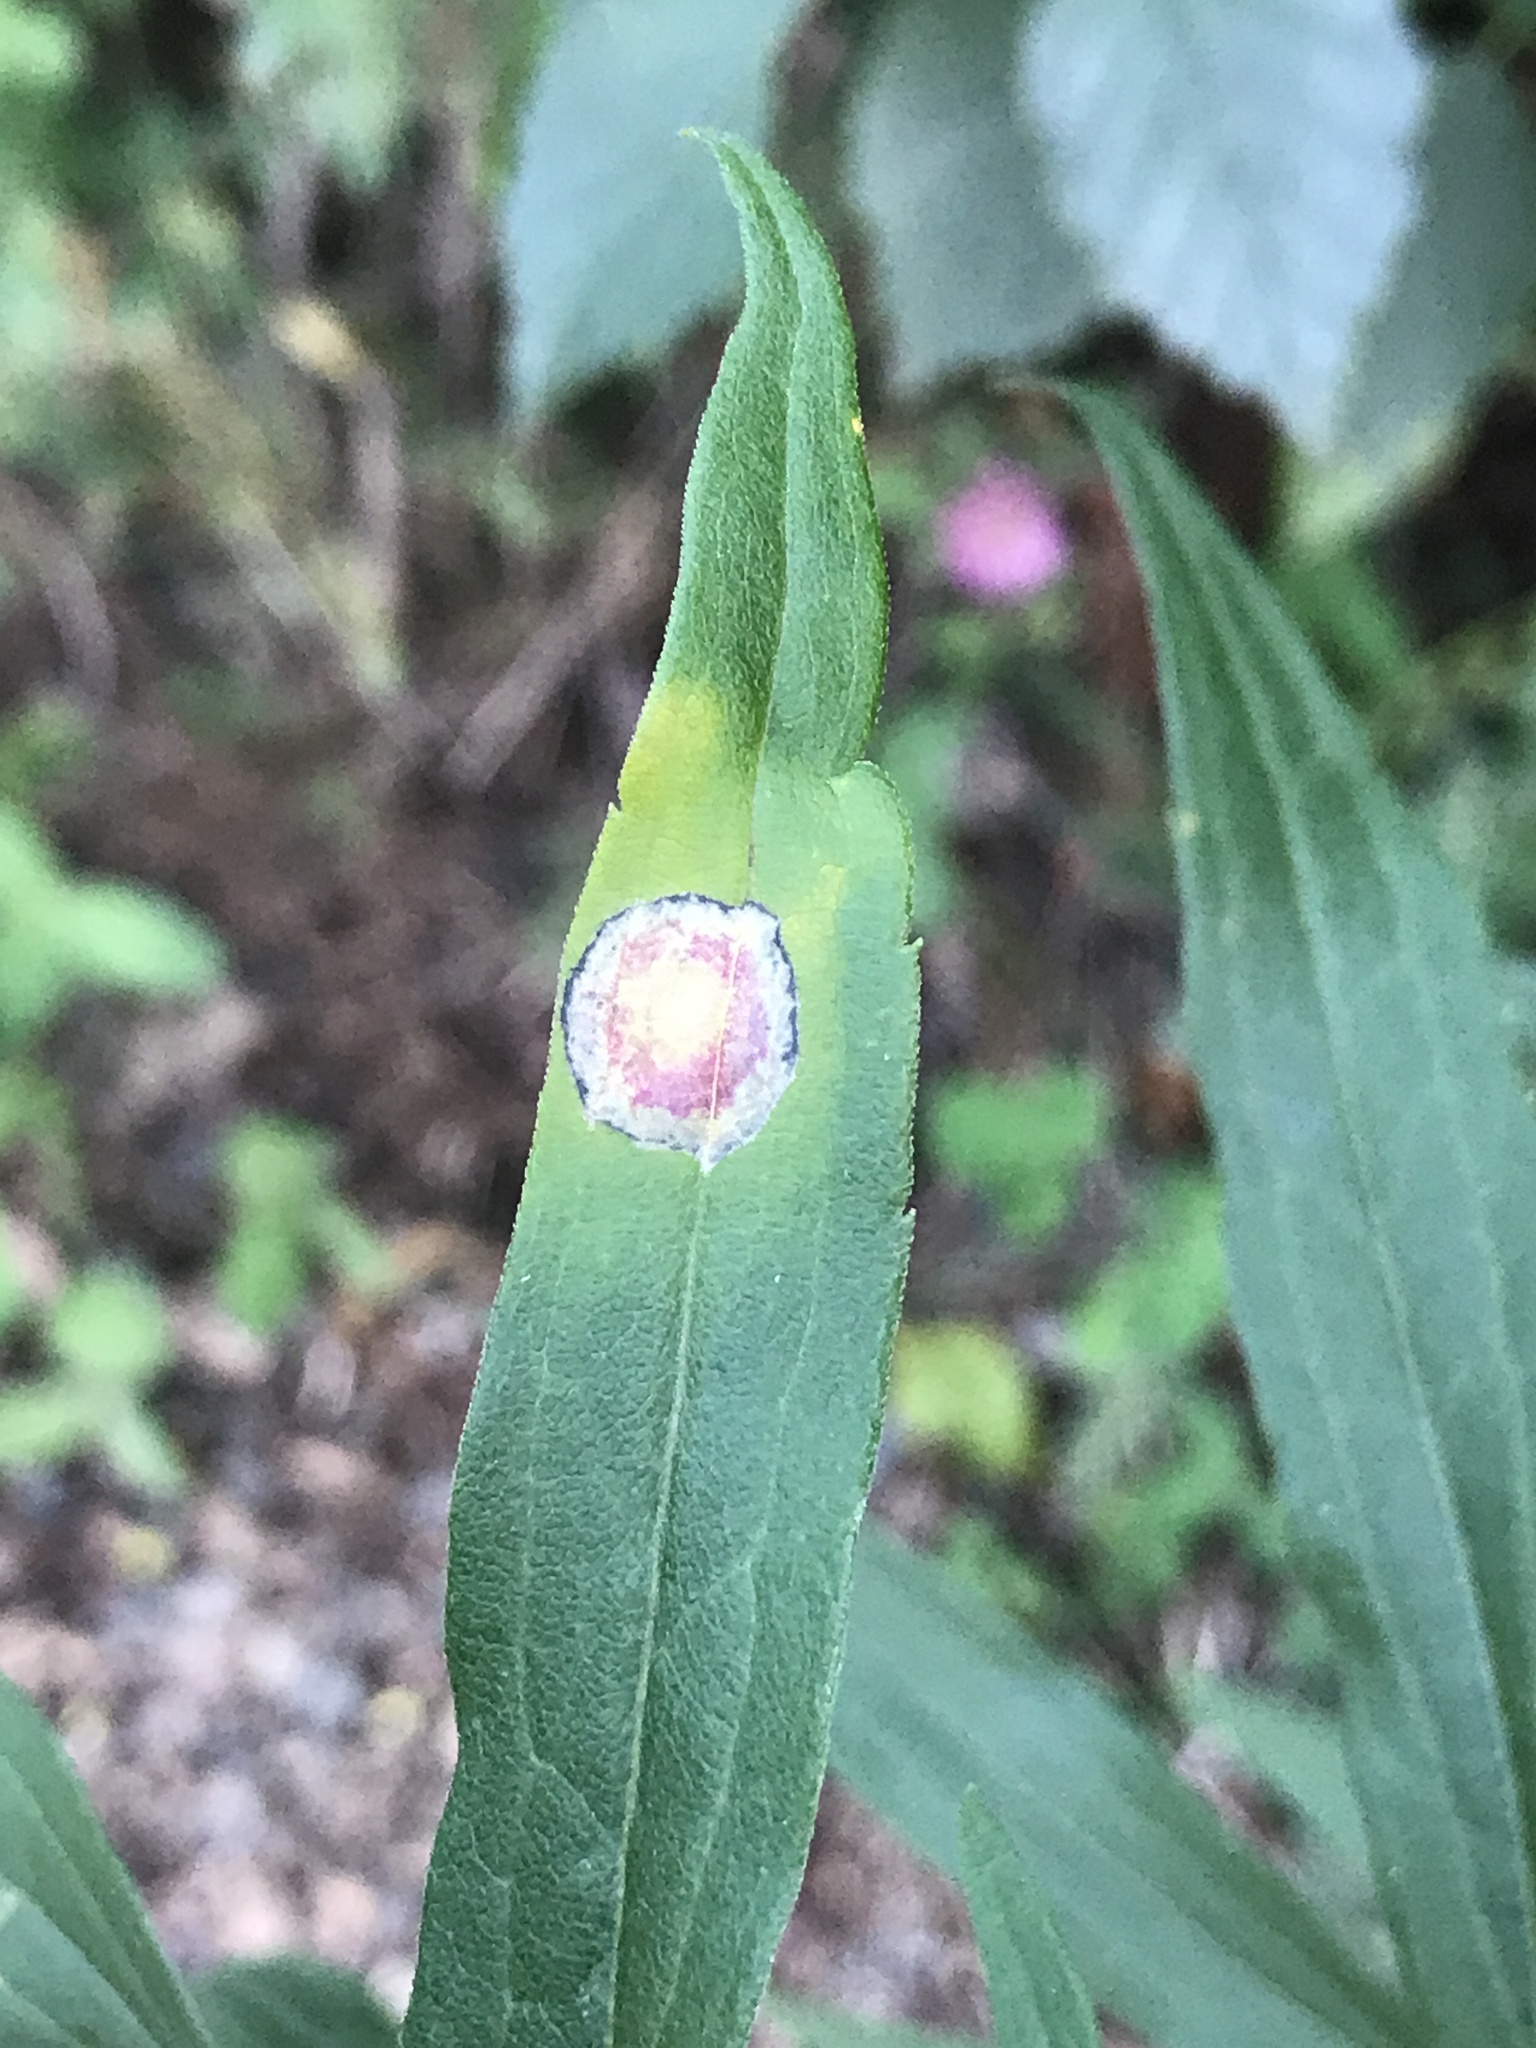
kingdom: Animalia
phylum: Arthropoda
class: Insecta
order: Diptera
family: Cecidomyiidae
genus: Asteromyia
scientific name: Asteromyia carbonifera
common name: Carbonifera goldenrod gall midge
